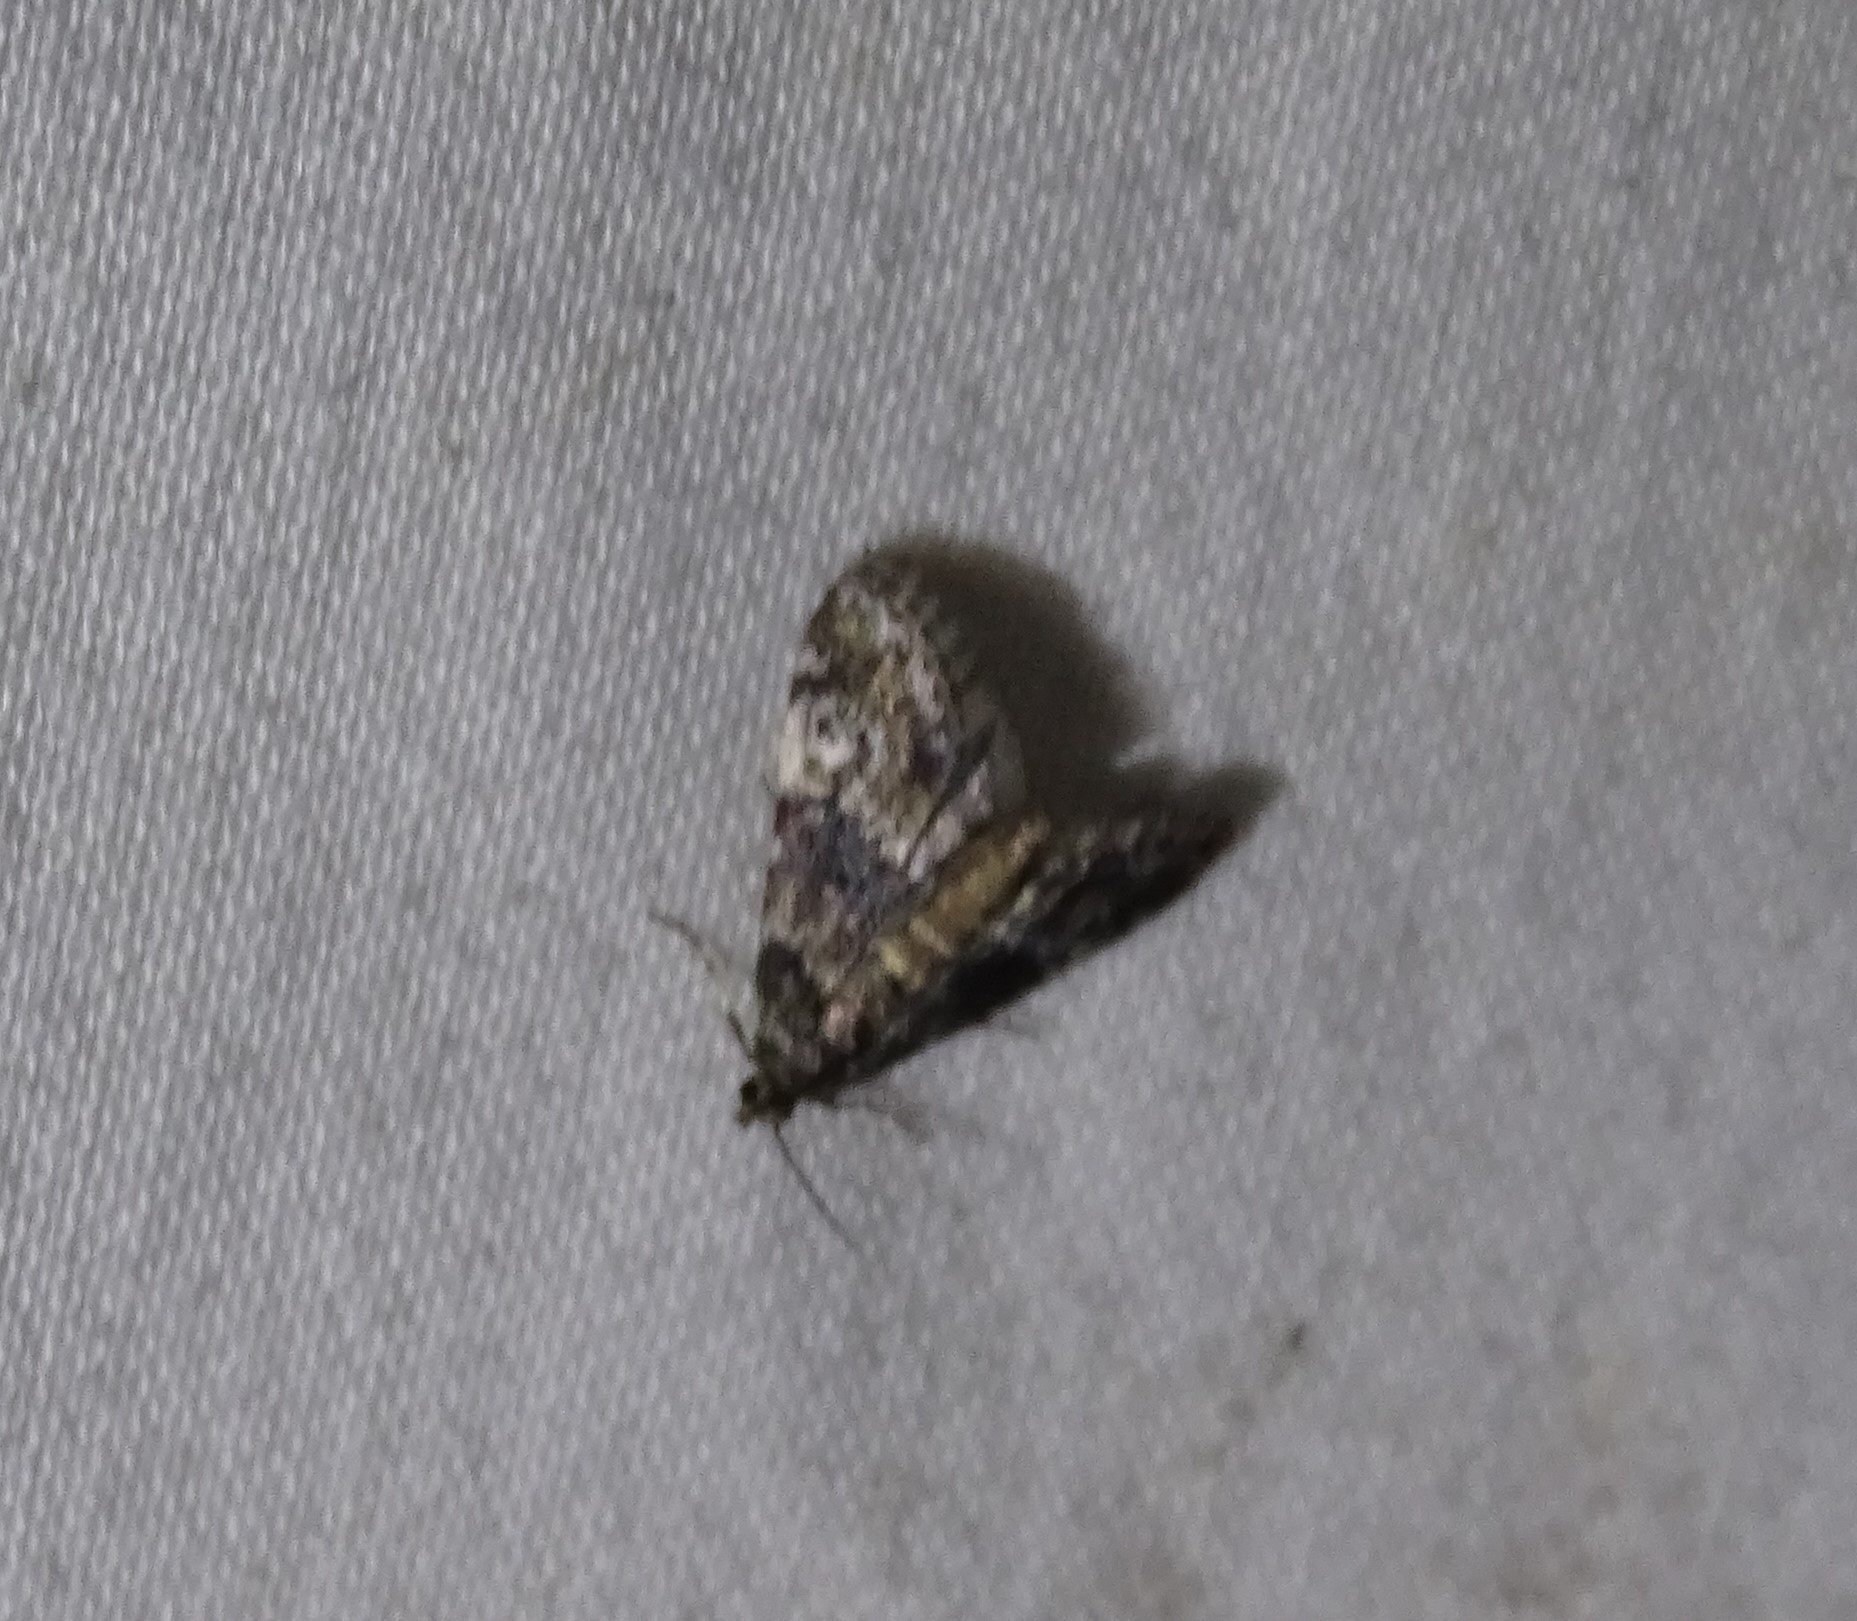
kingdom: Animalia
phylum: Arthropoda
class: Insecta
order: Lepidoptera
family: Crambidae
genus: Elophila
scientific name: Elophila obliteralis
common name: Waterlily leafcutter moth
